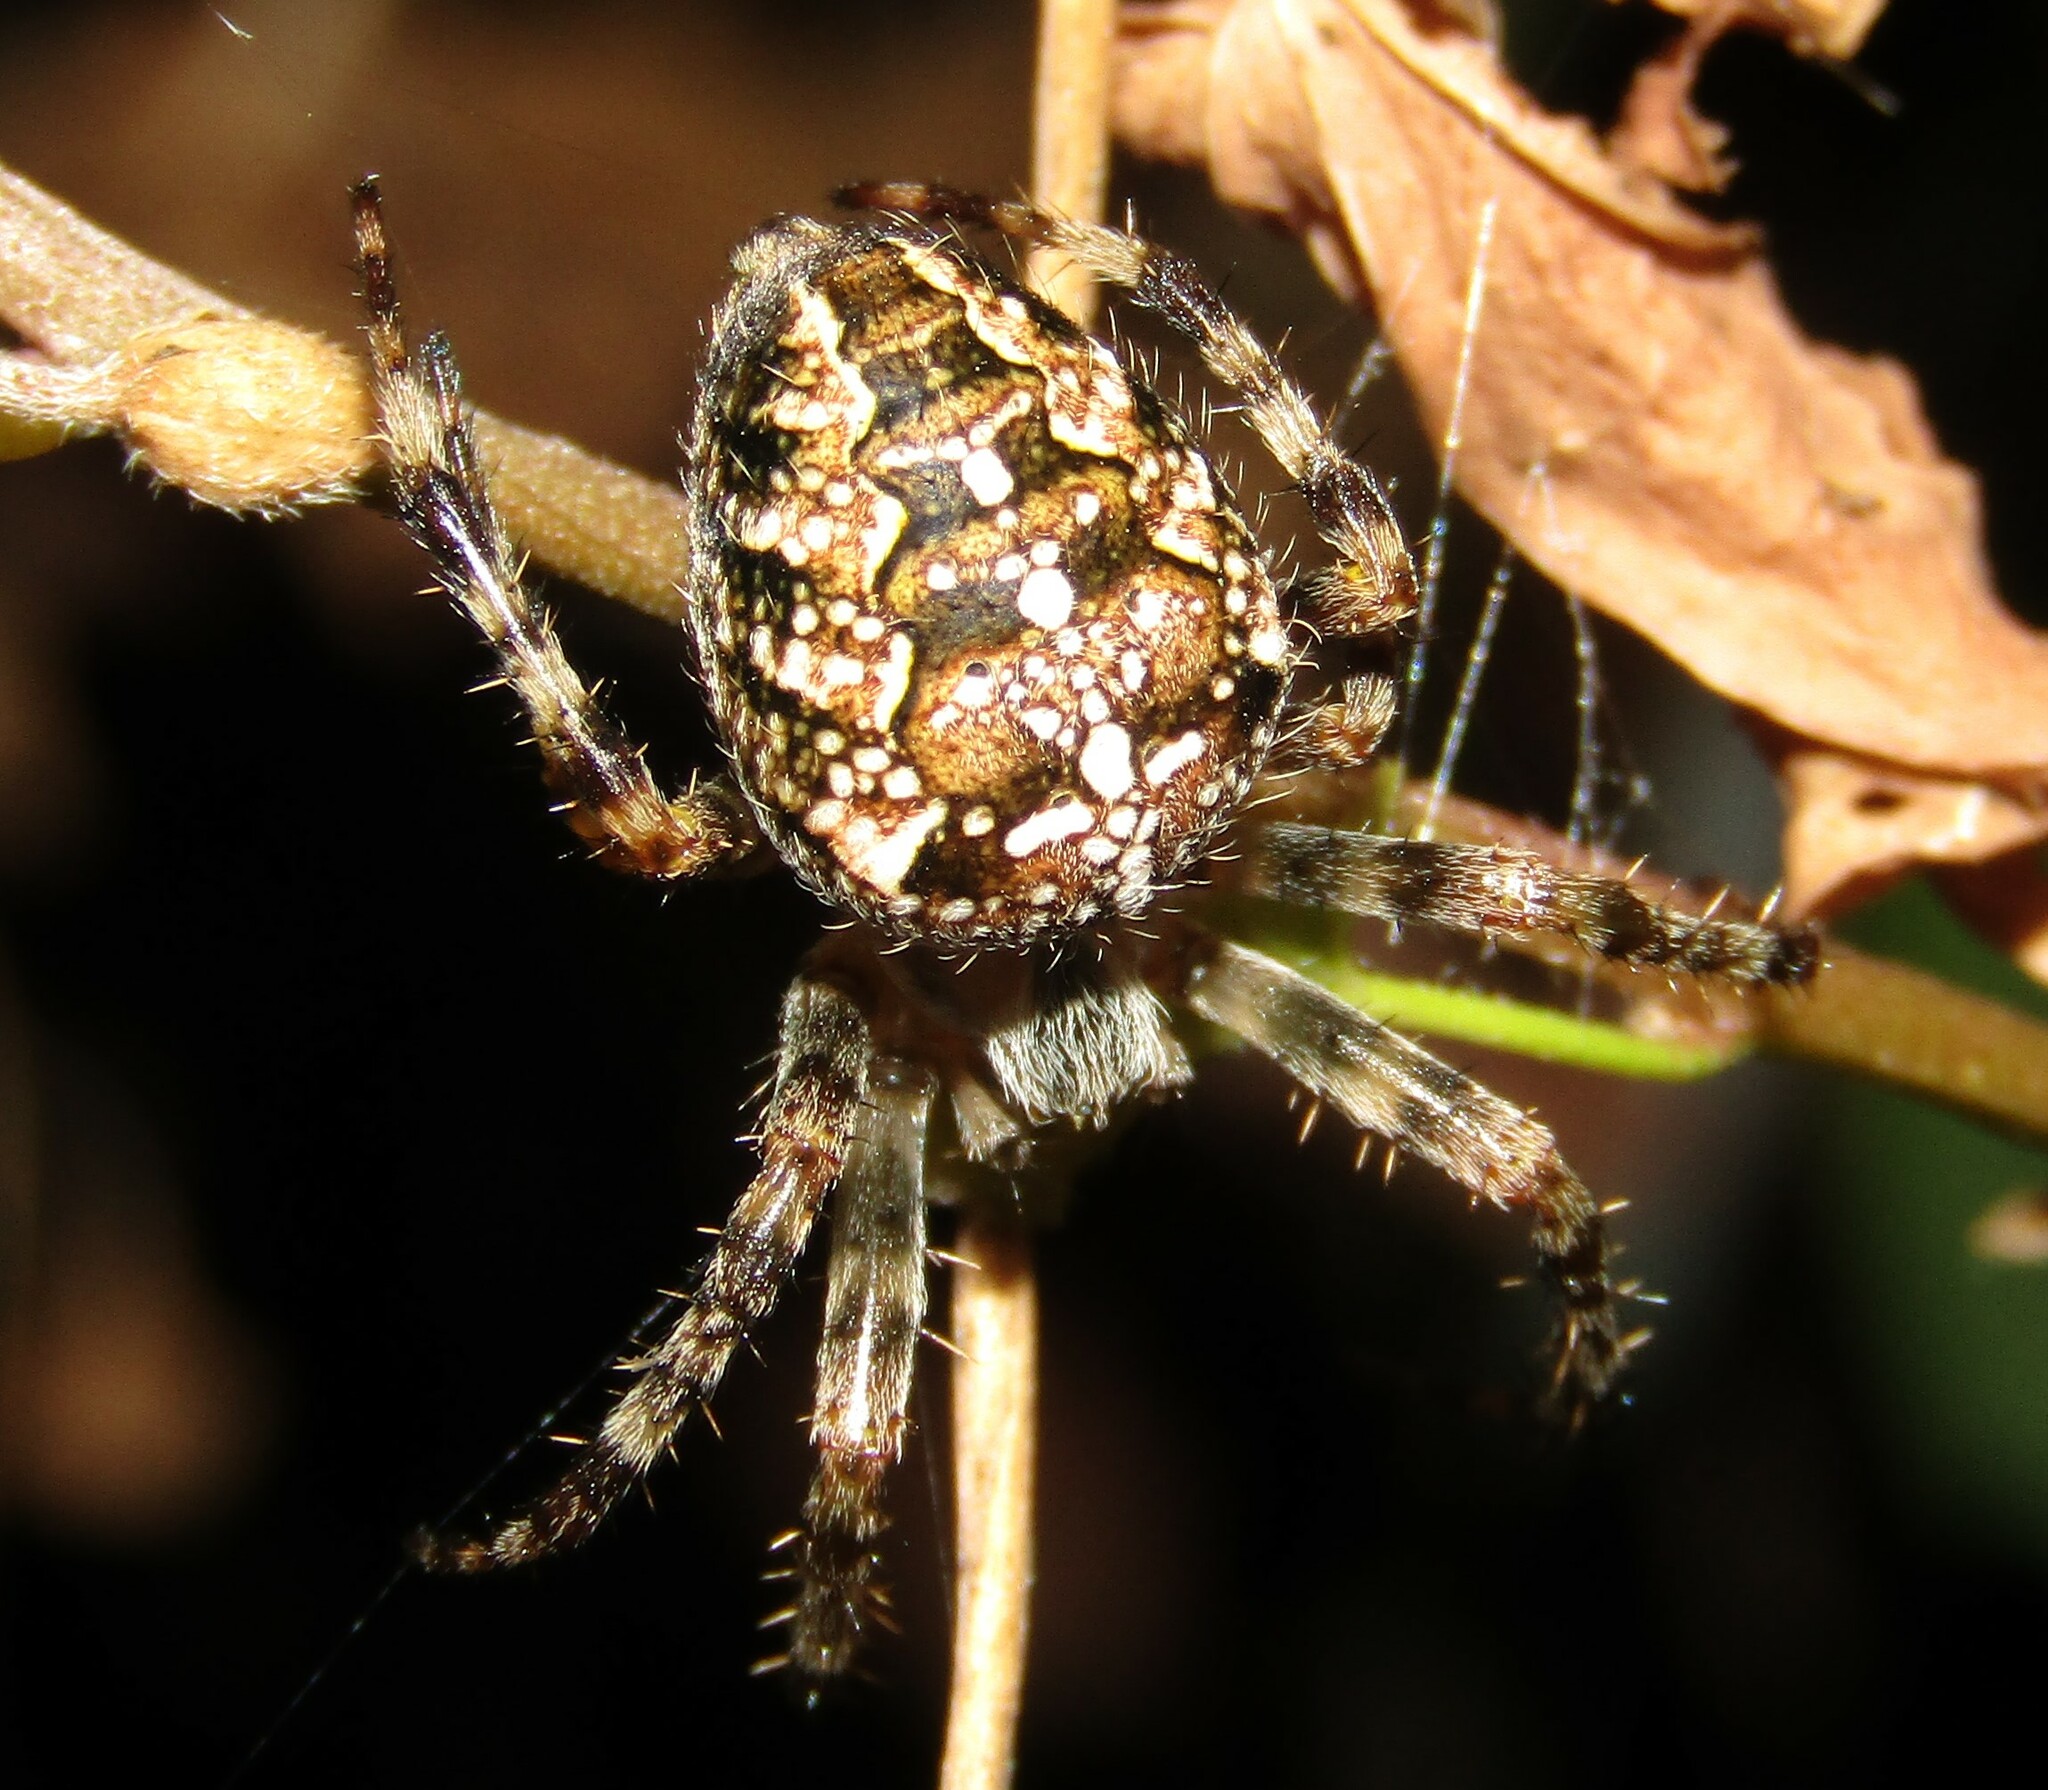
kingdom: Animalia
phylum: Arthropoda
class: Arachnida
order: Araneae
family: Araneidae
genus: Araneus
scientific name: Araneus diadematus
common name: Cross orbweaver
